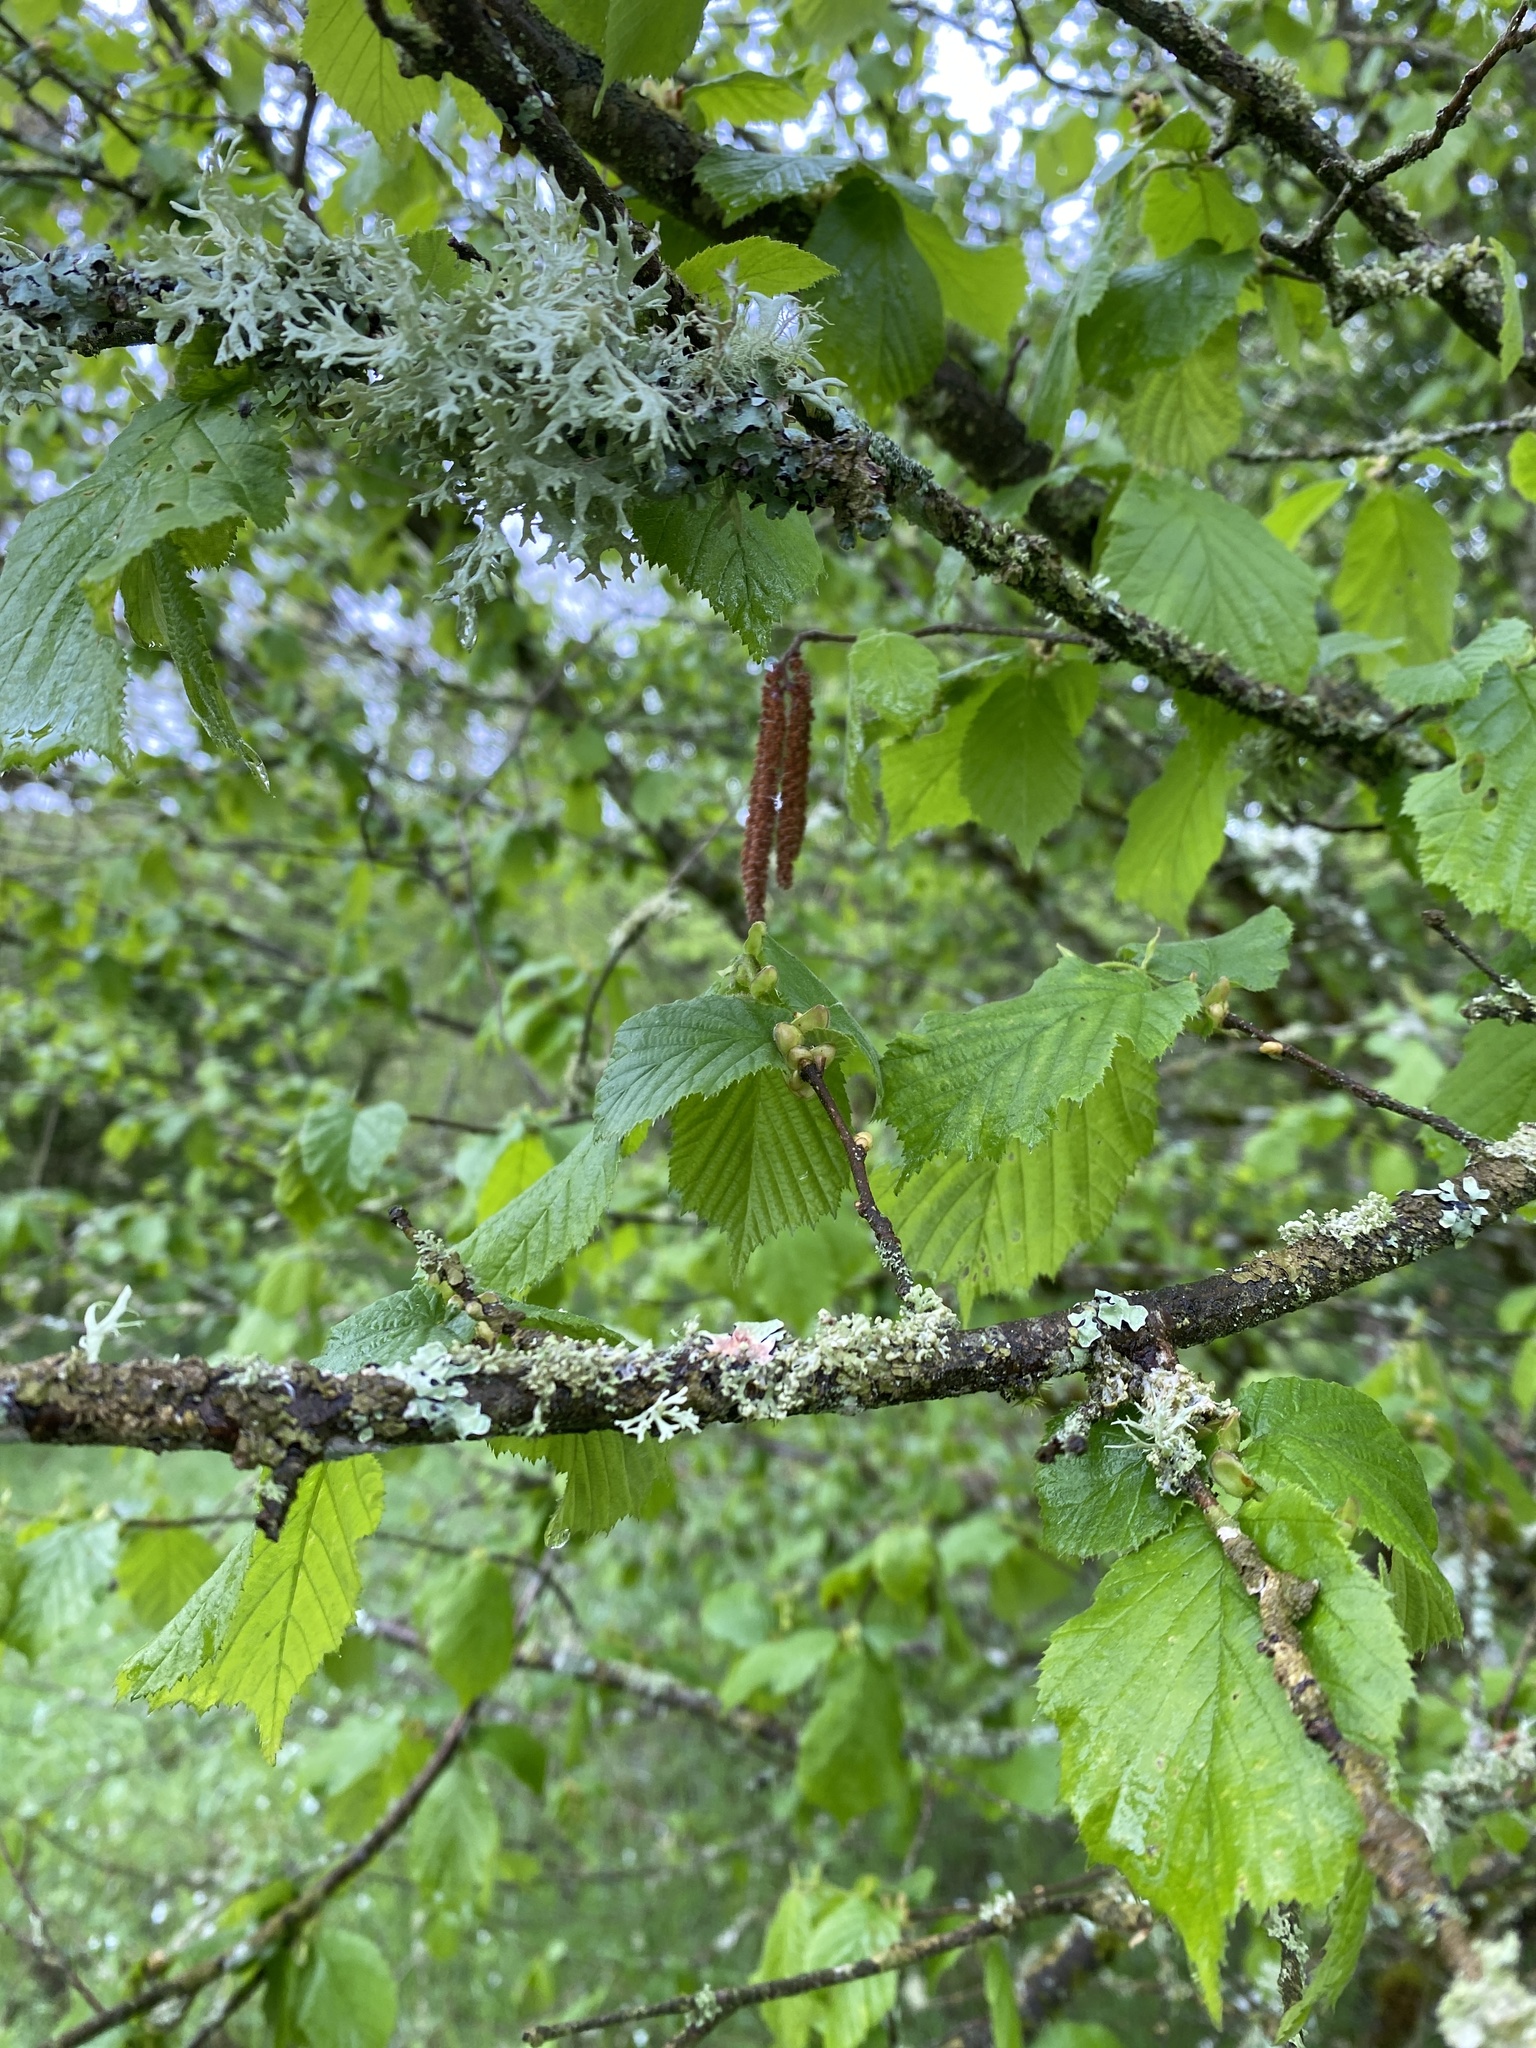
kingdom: Plantae
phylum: Tracheophyta
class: Magnoliopsida
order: Fagales
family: Betulaceae
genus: Corylus
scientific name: Corylus avellana
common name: European hazel
